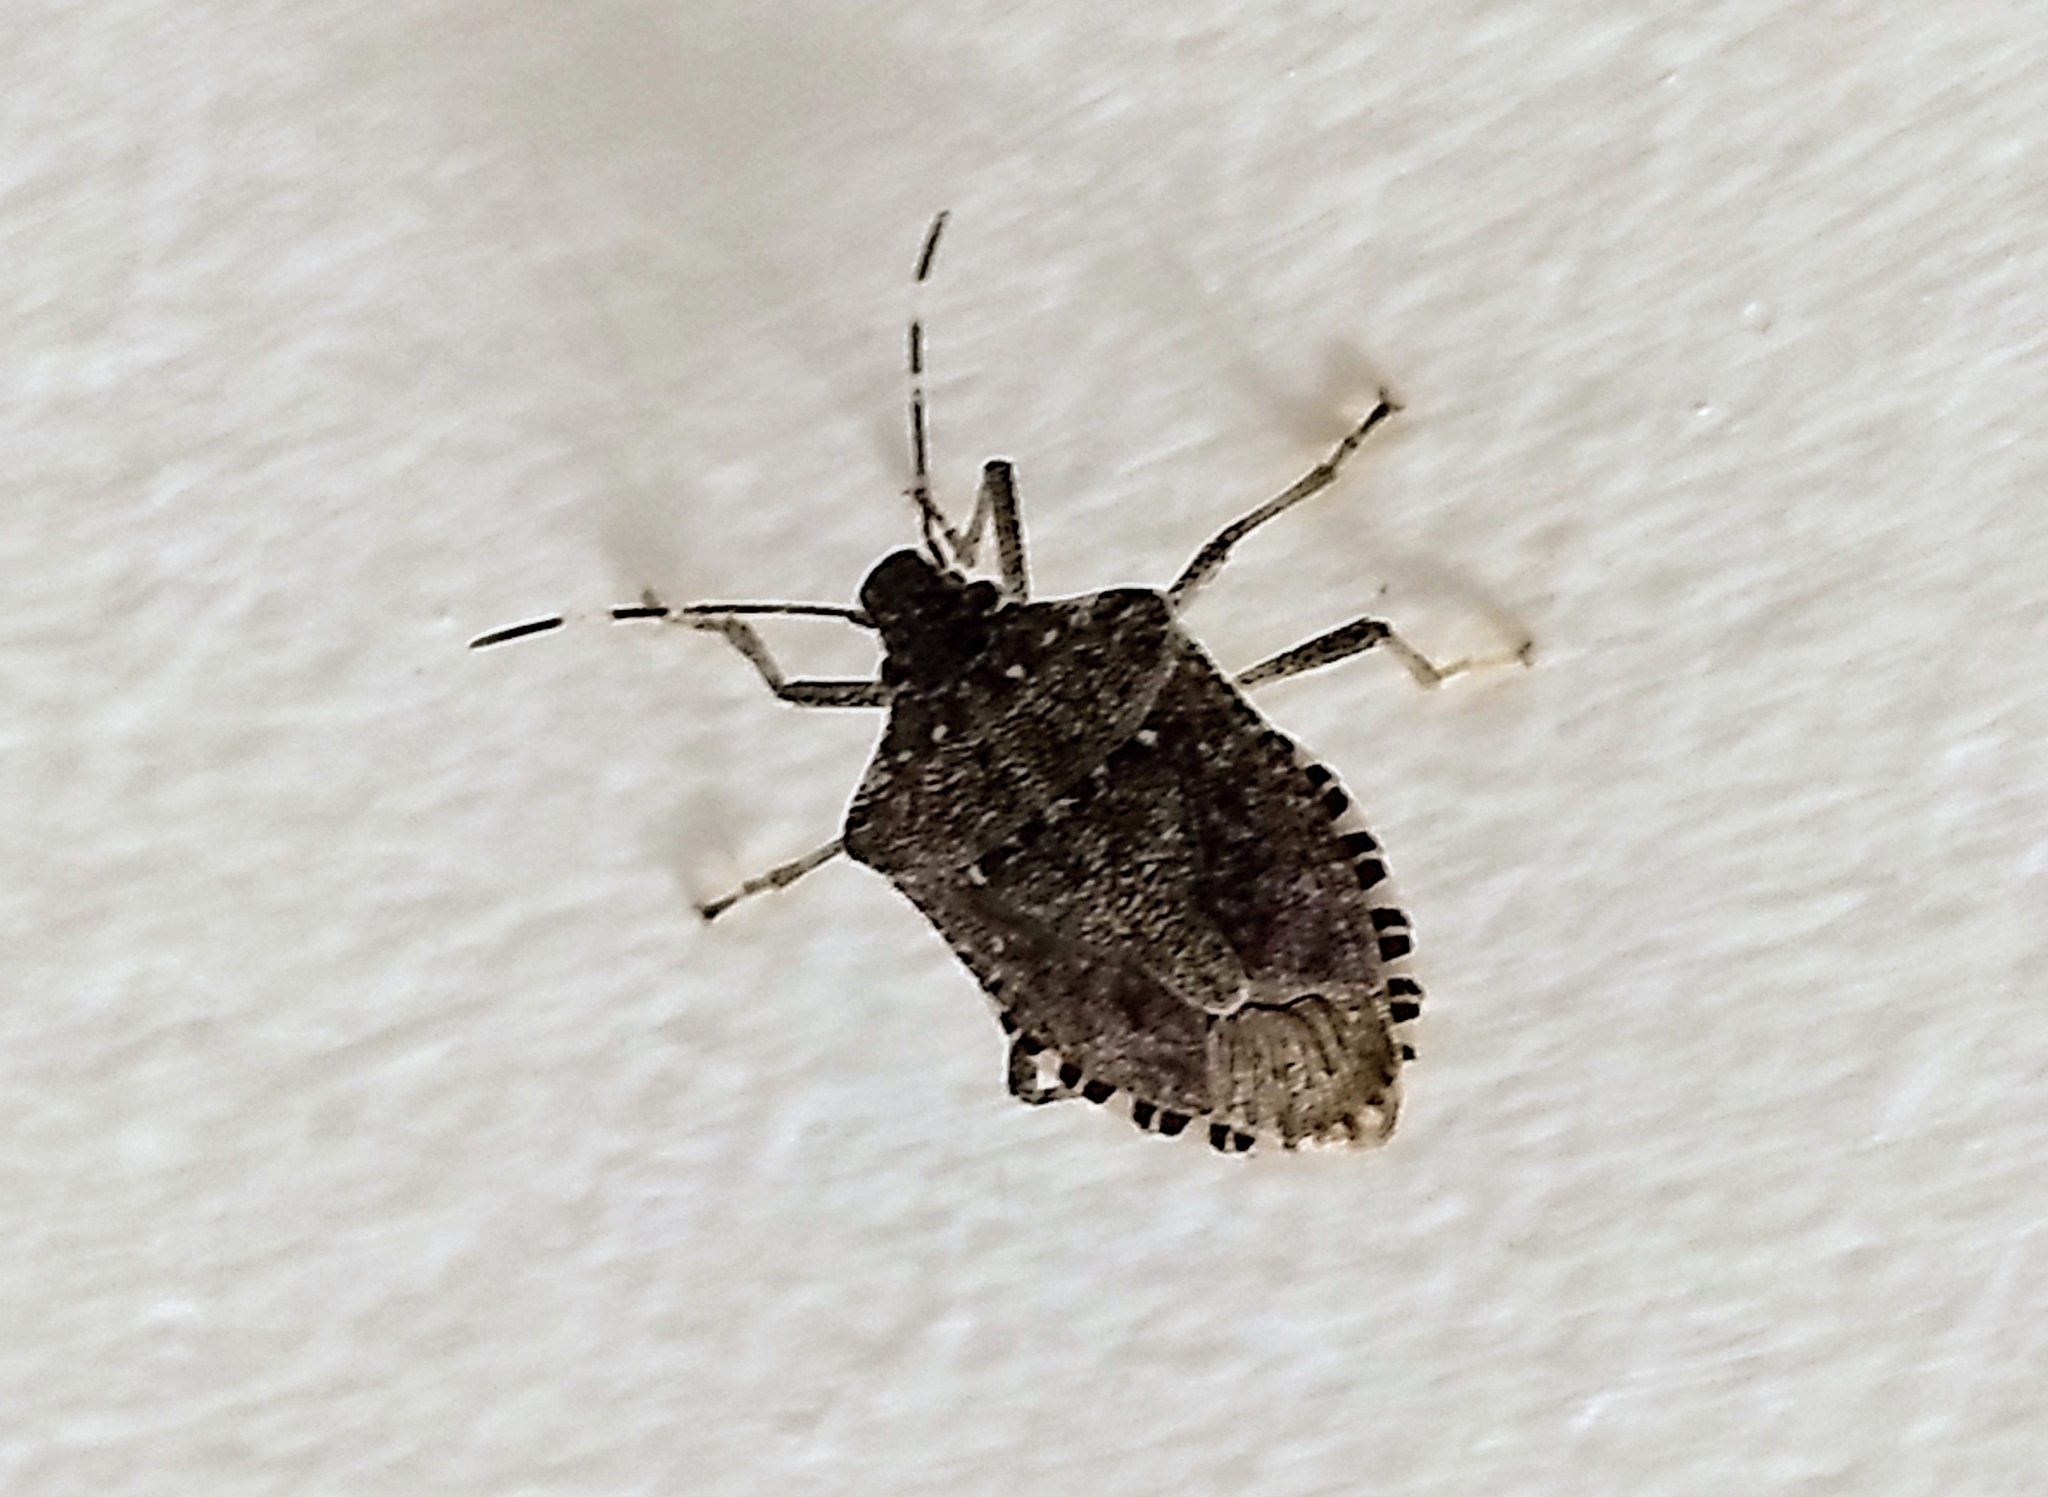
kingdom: Animalia
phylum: Arthropoda
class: Insecta
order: Hemiptera
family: Pentatomidae
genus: Halyomorpha
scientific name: Halyomorpha halys
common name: Brown marmorated stink bug
